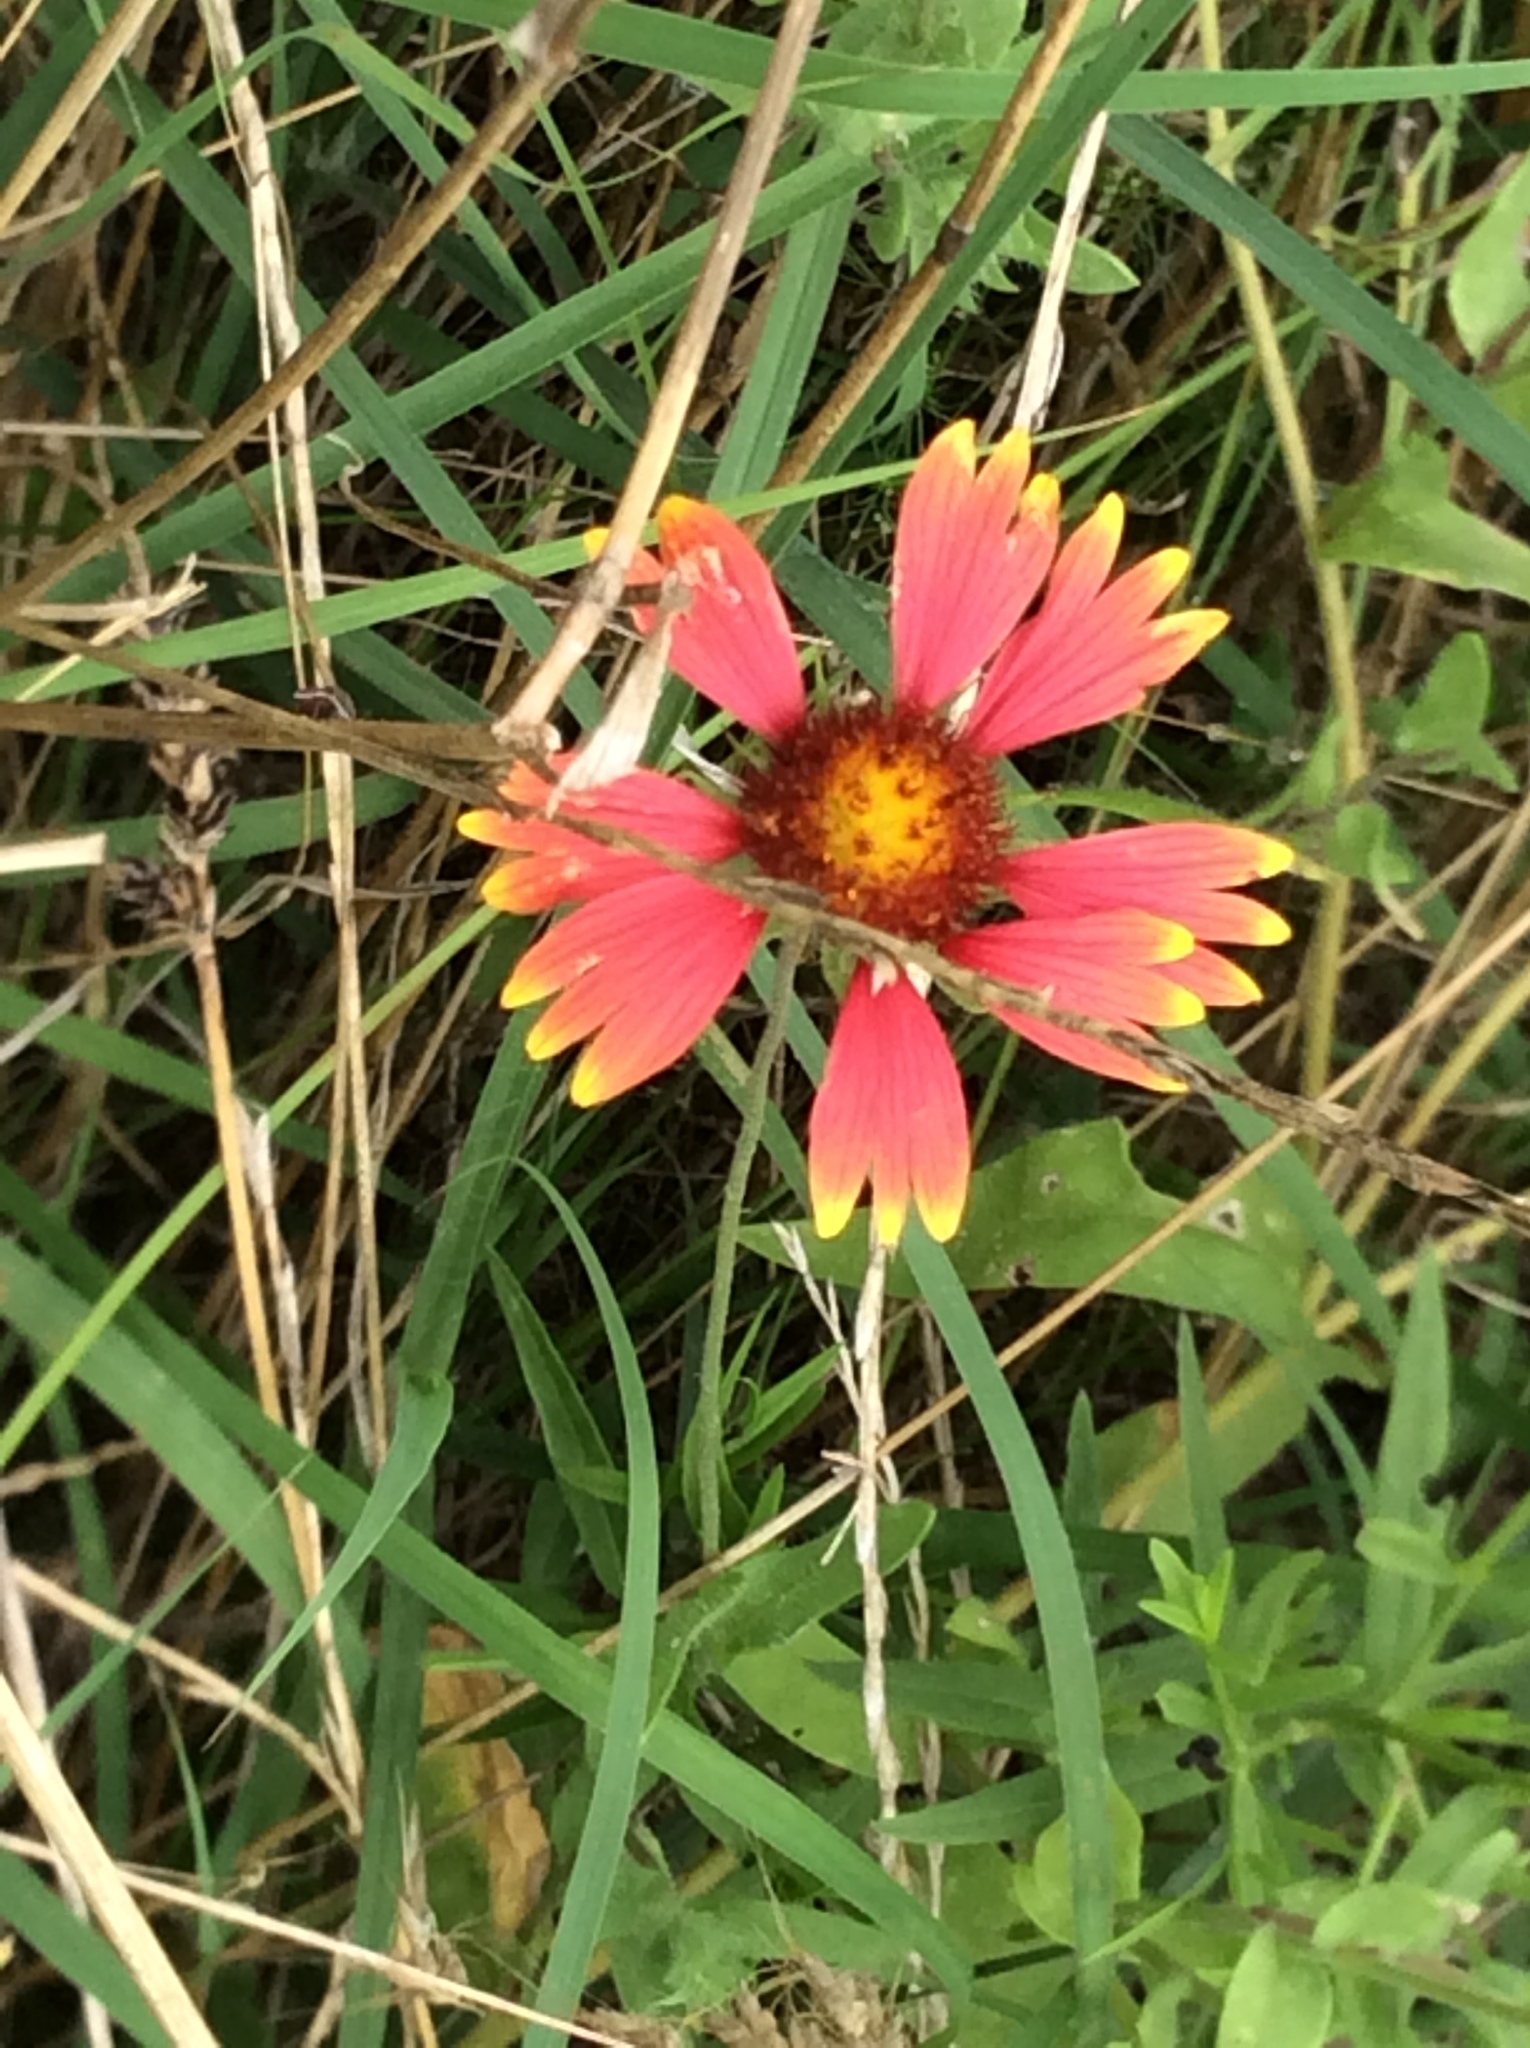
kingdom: Plantae
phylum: Tracheophyta
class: Magnoliopsida
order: Asterales
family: Asteraceae
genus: Gaillardia
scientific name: Gaillardia pulchella
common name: Firewheel
